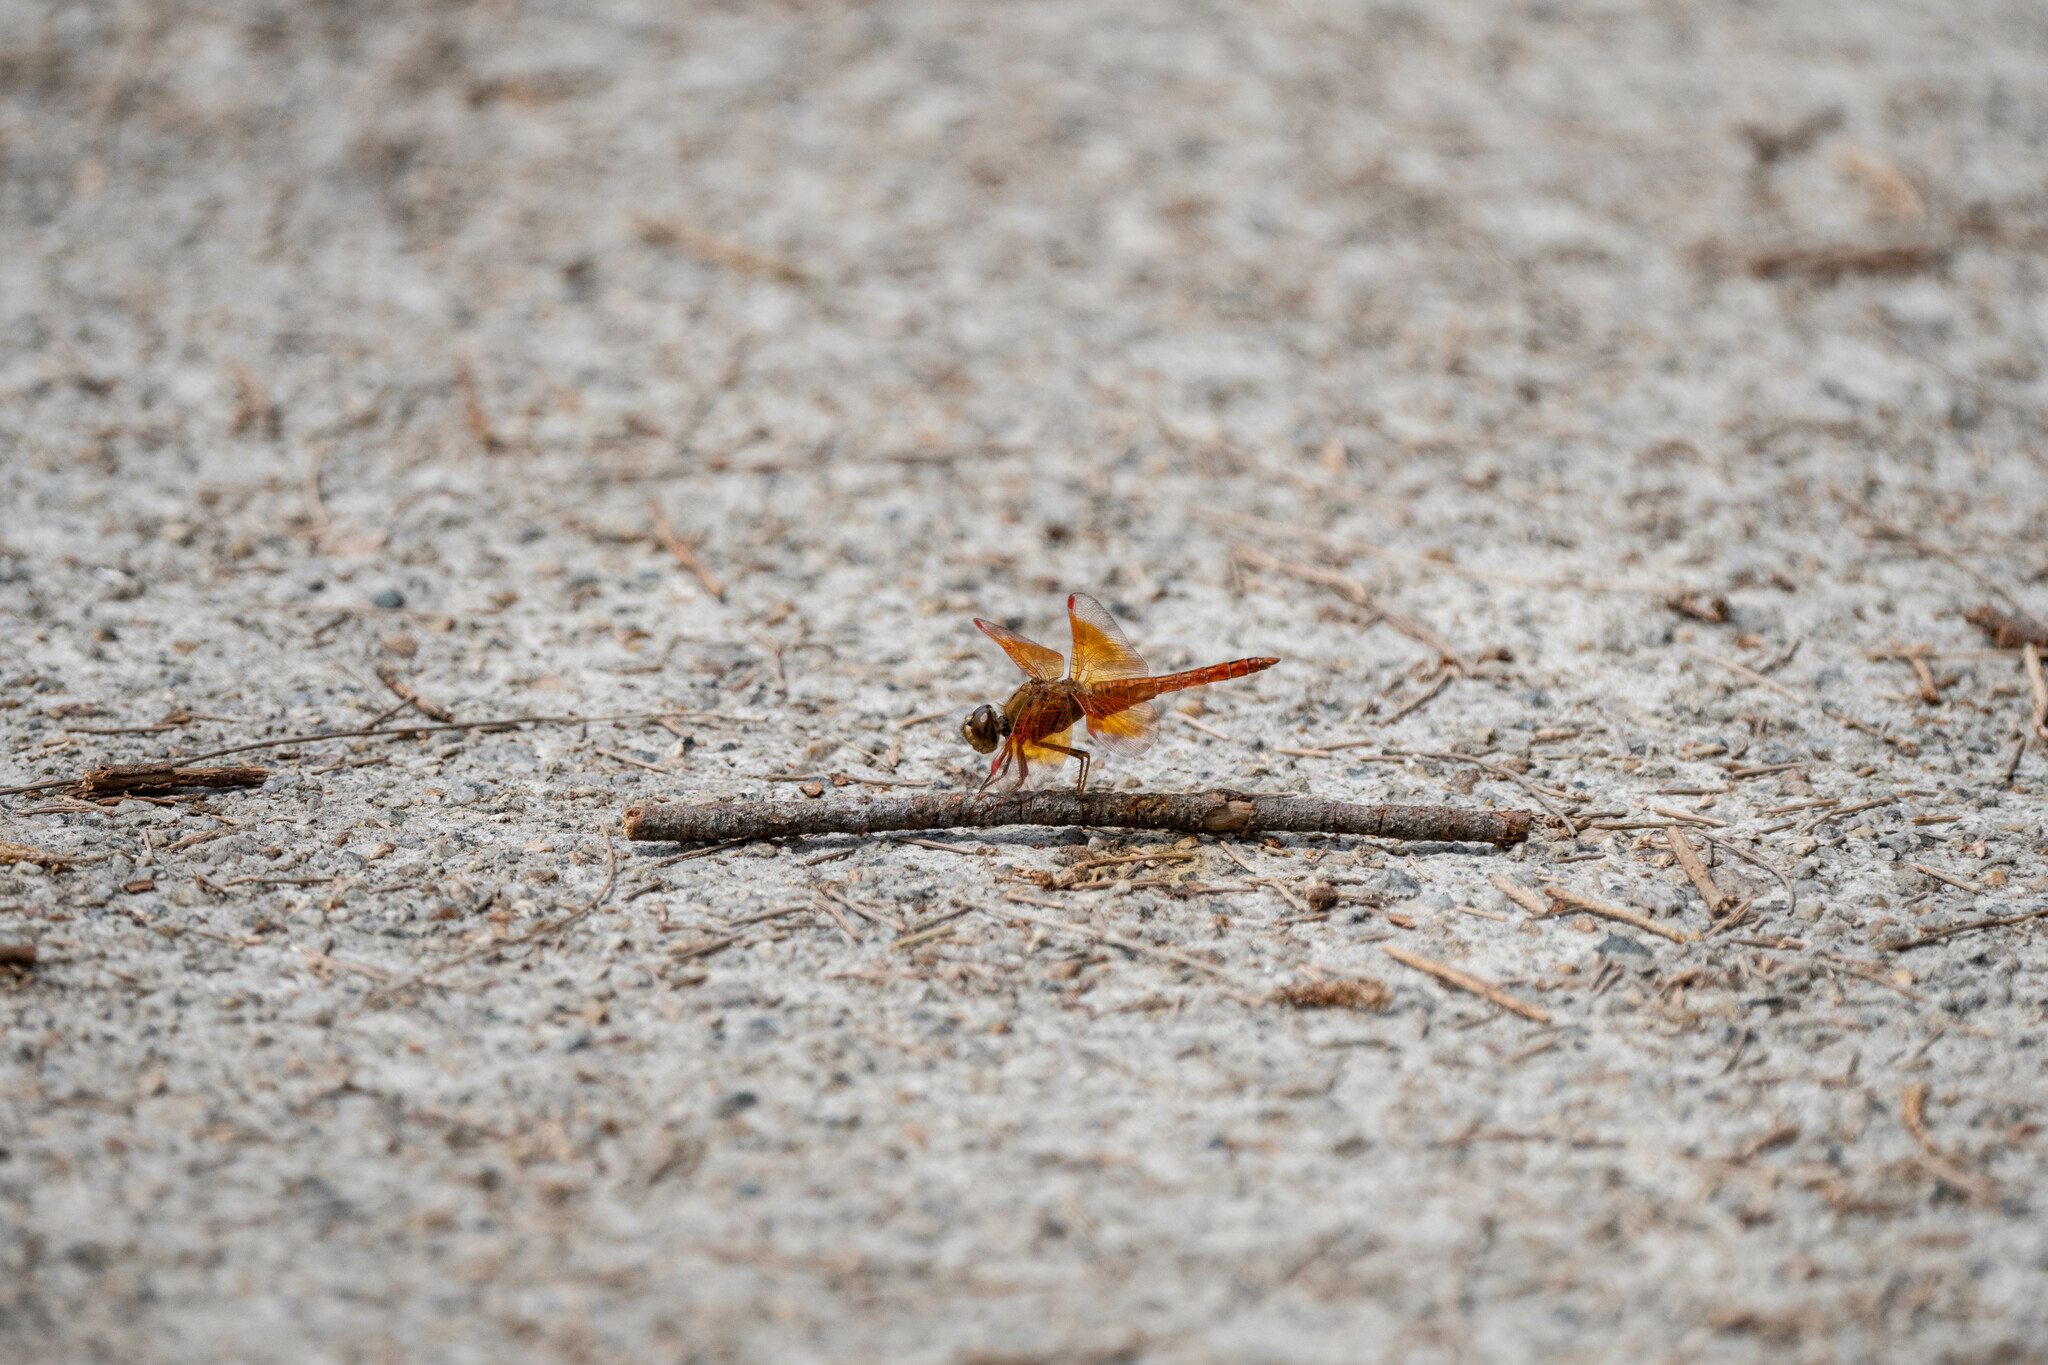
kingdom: Animalia
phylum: Arthropoda
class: Insecta
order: Odonata
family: Libellulidae
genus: Brachythemis
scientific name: Brachythemis contaminata
